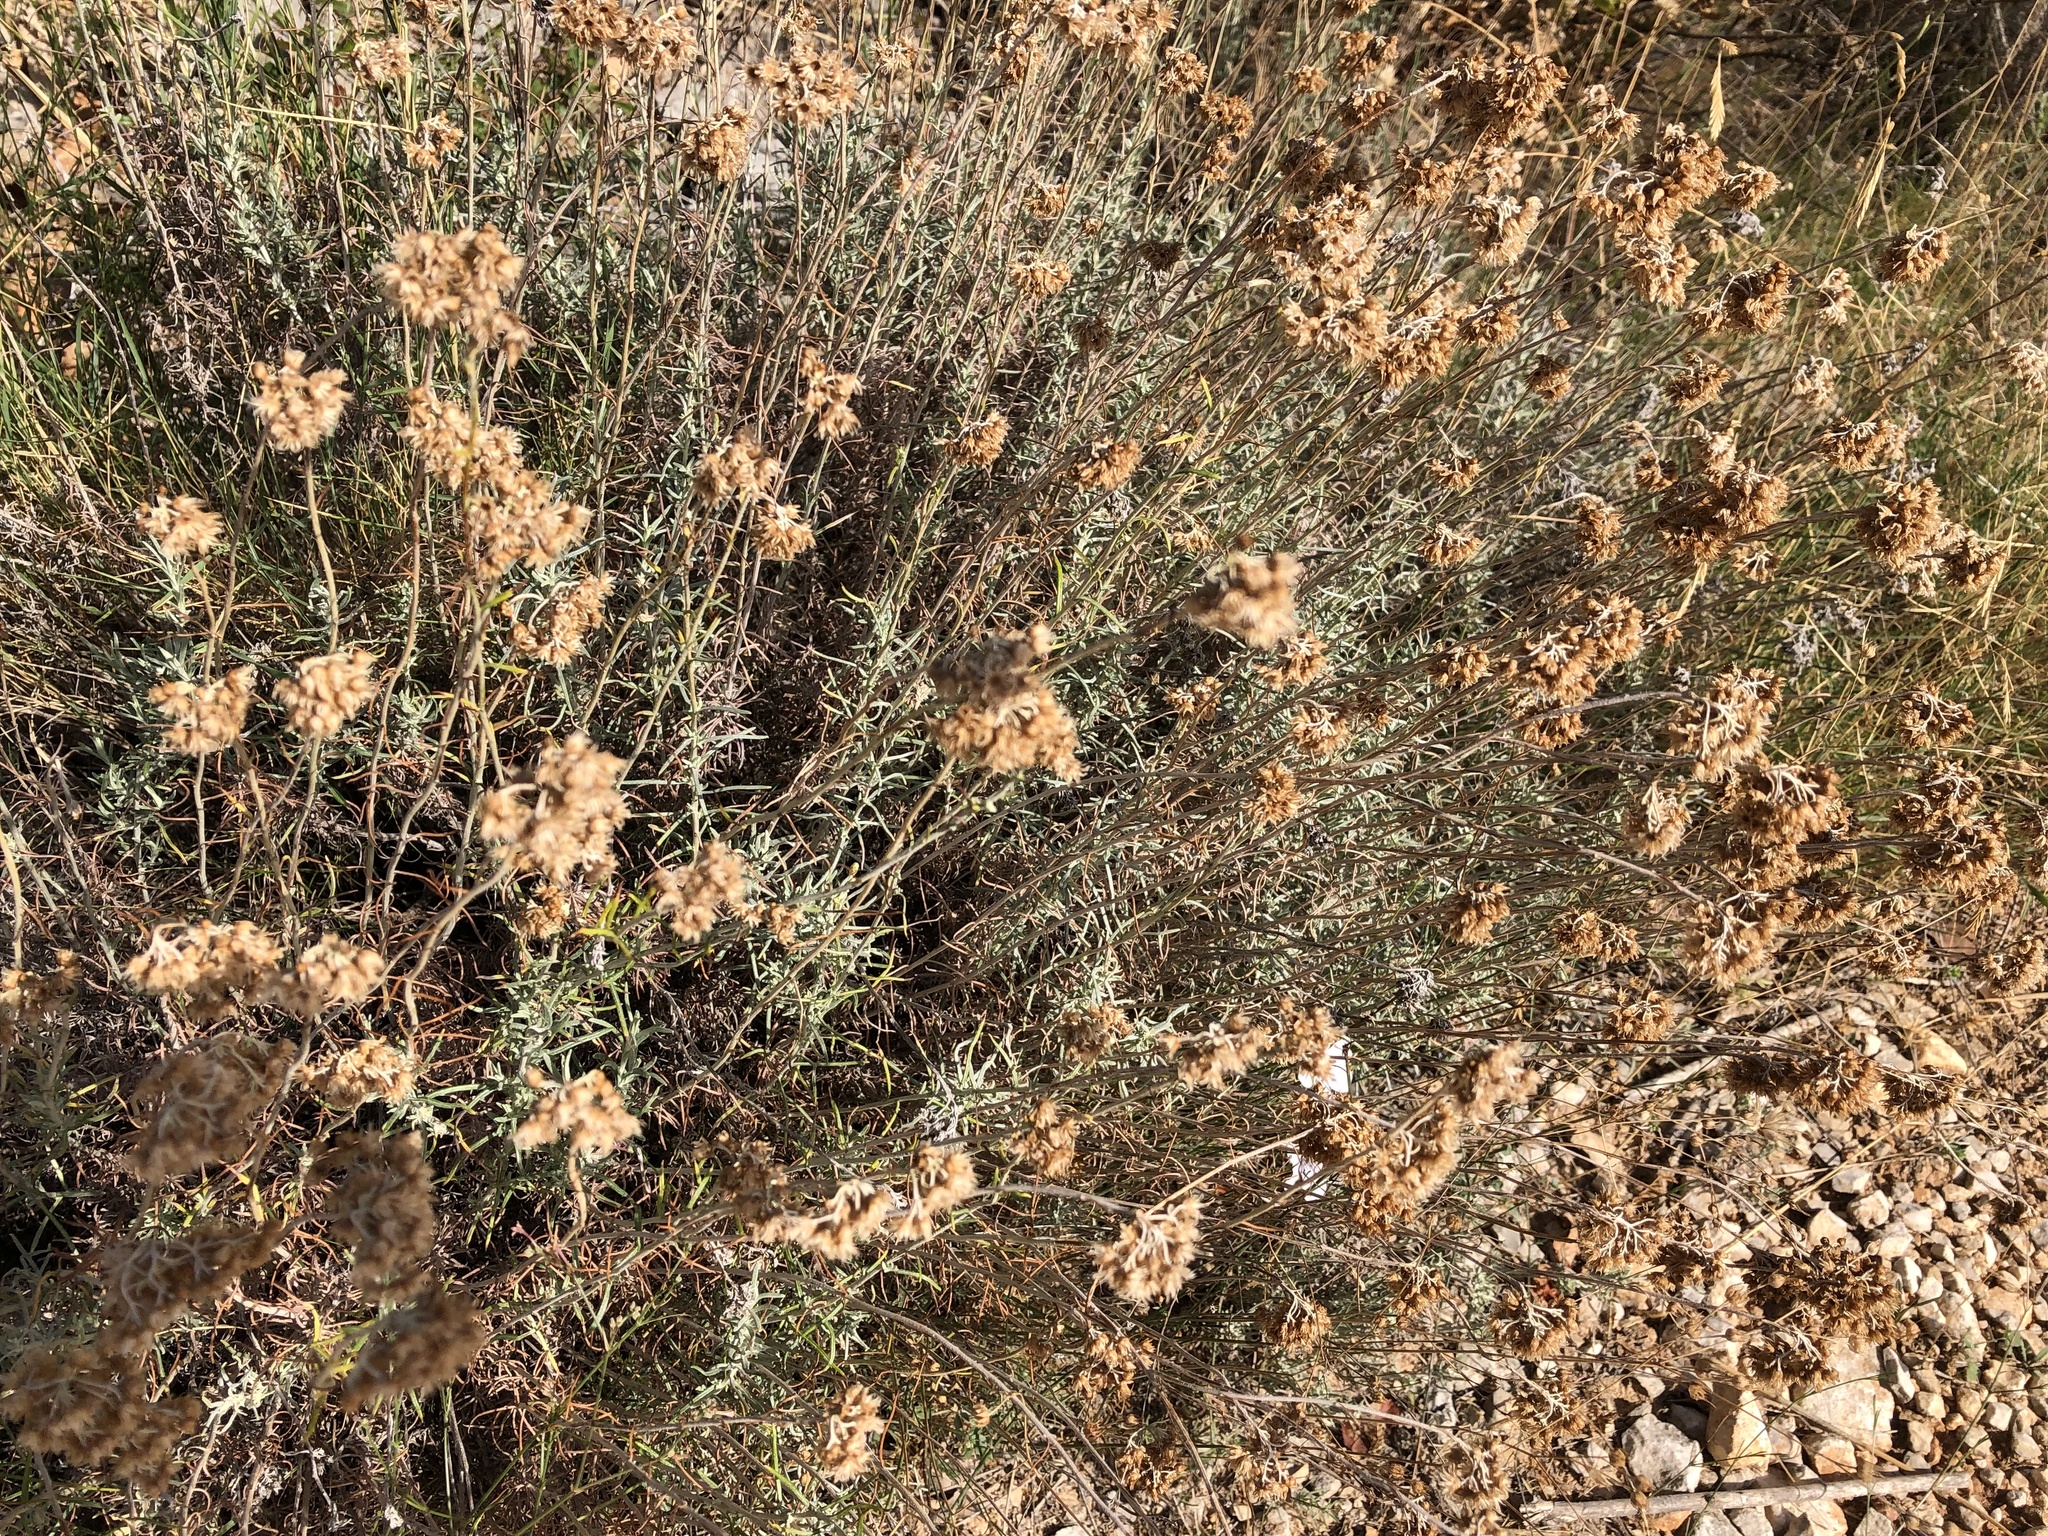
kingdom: Plantae
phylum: Tracheophyta
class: Magnoliopsida
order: Malpighiales
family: Linaceae
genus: Linum
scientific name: Linum tenuifolium
